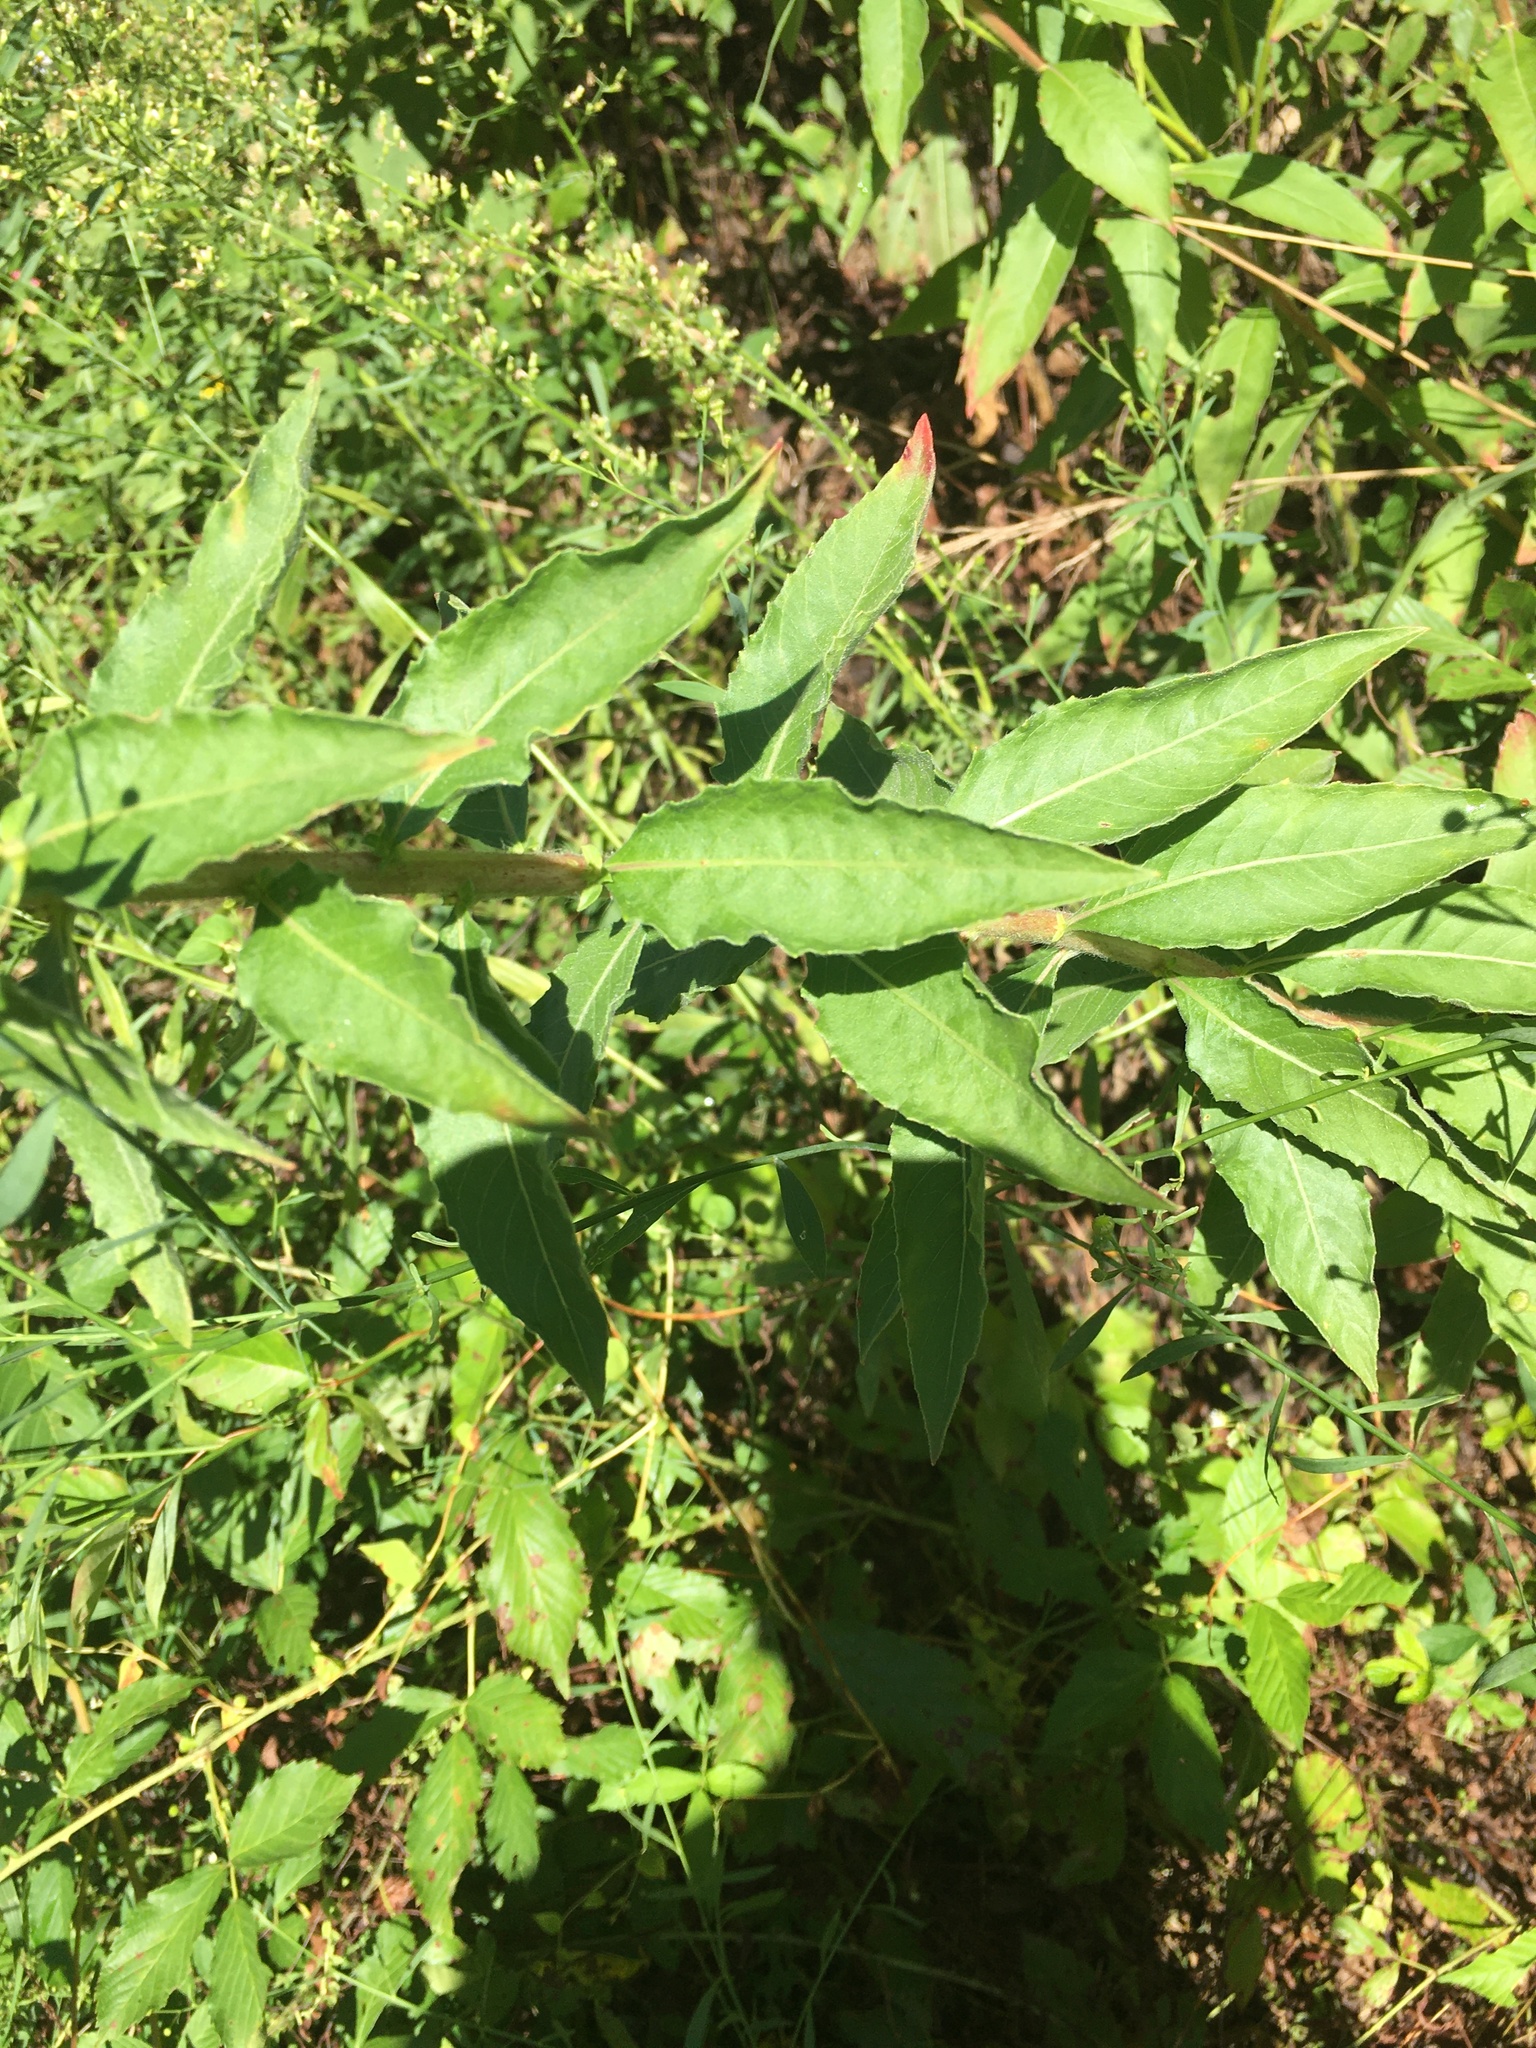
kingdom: Plantae
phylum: Tracheophyta
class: Magnoliopsida
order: Myrtales
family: Onagraceae
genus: Oenothera
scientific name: Oenothera biennis
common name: Common evening-primrose
